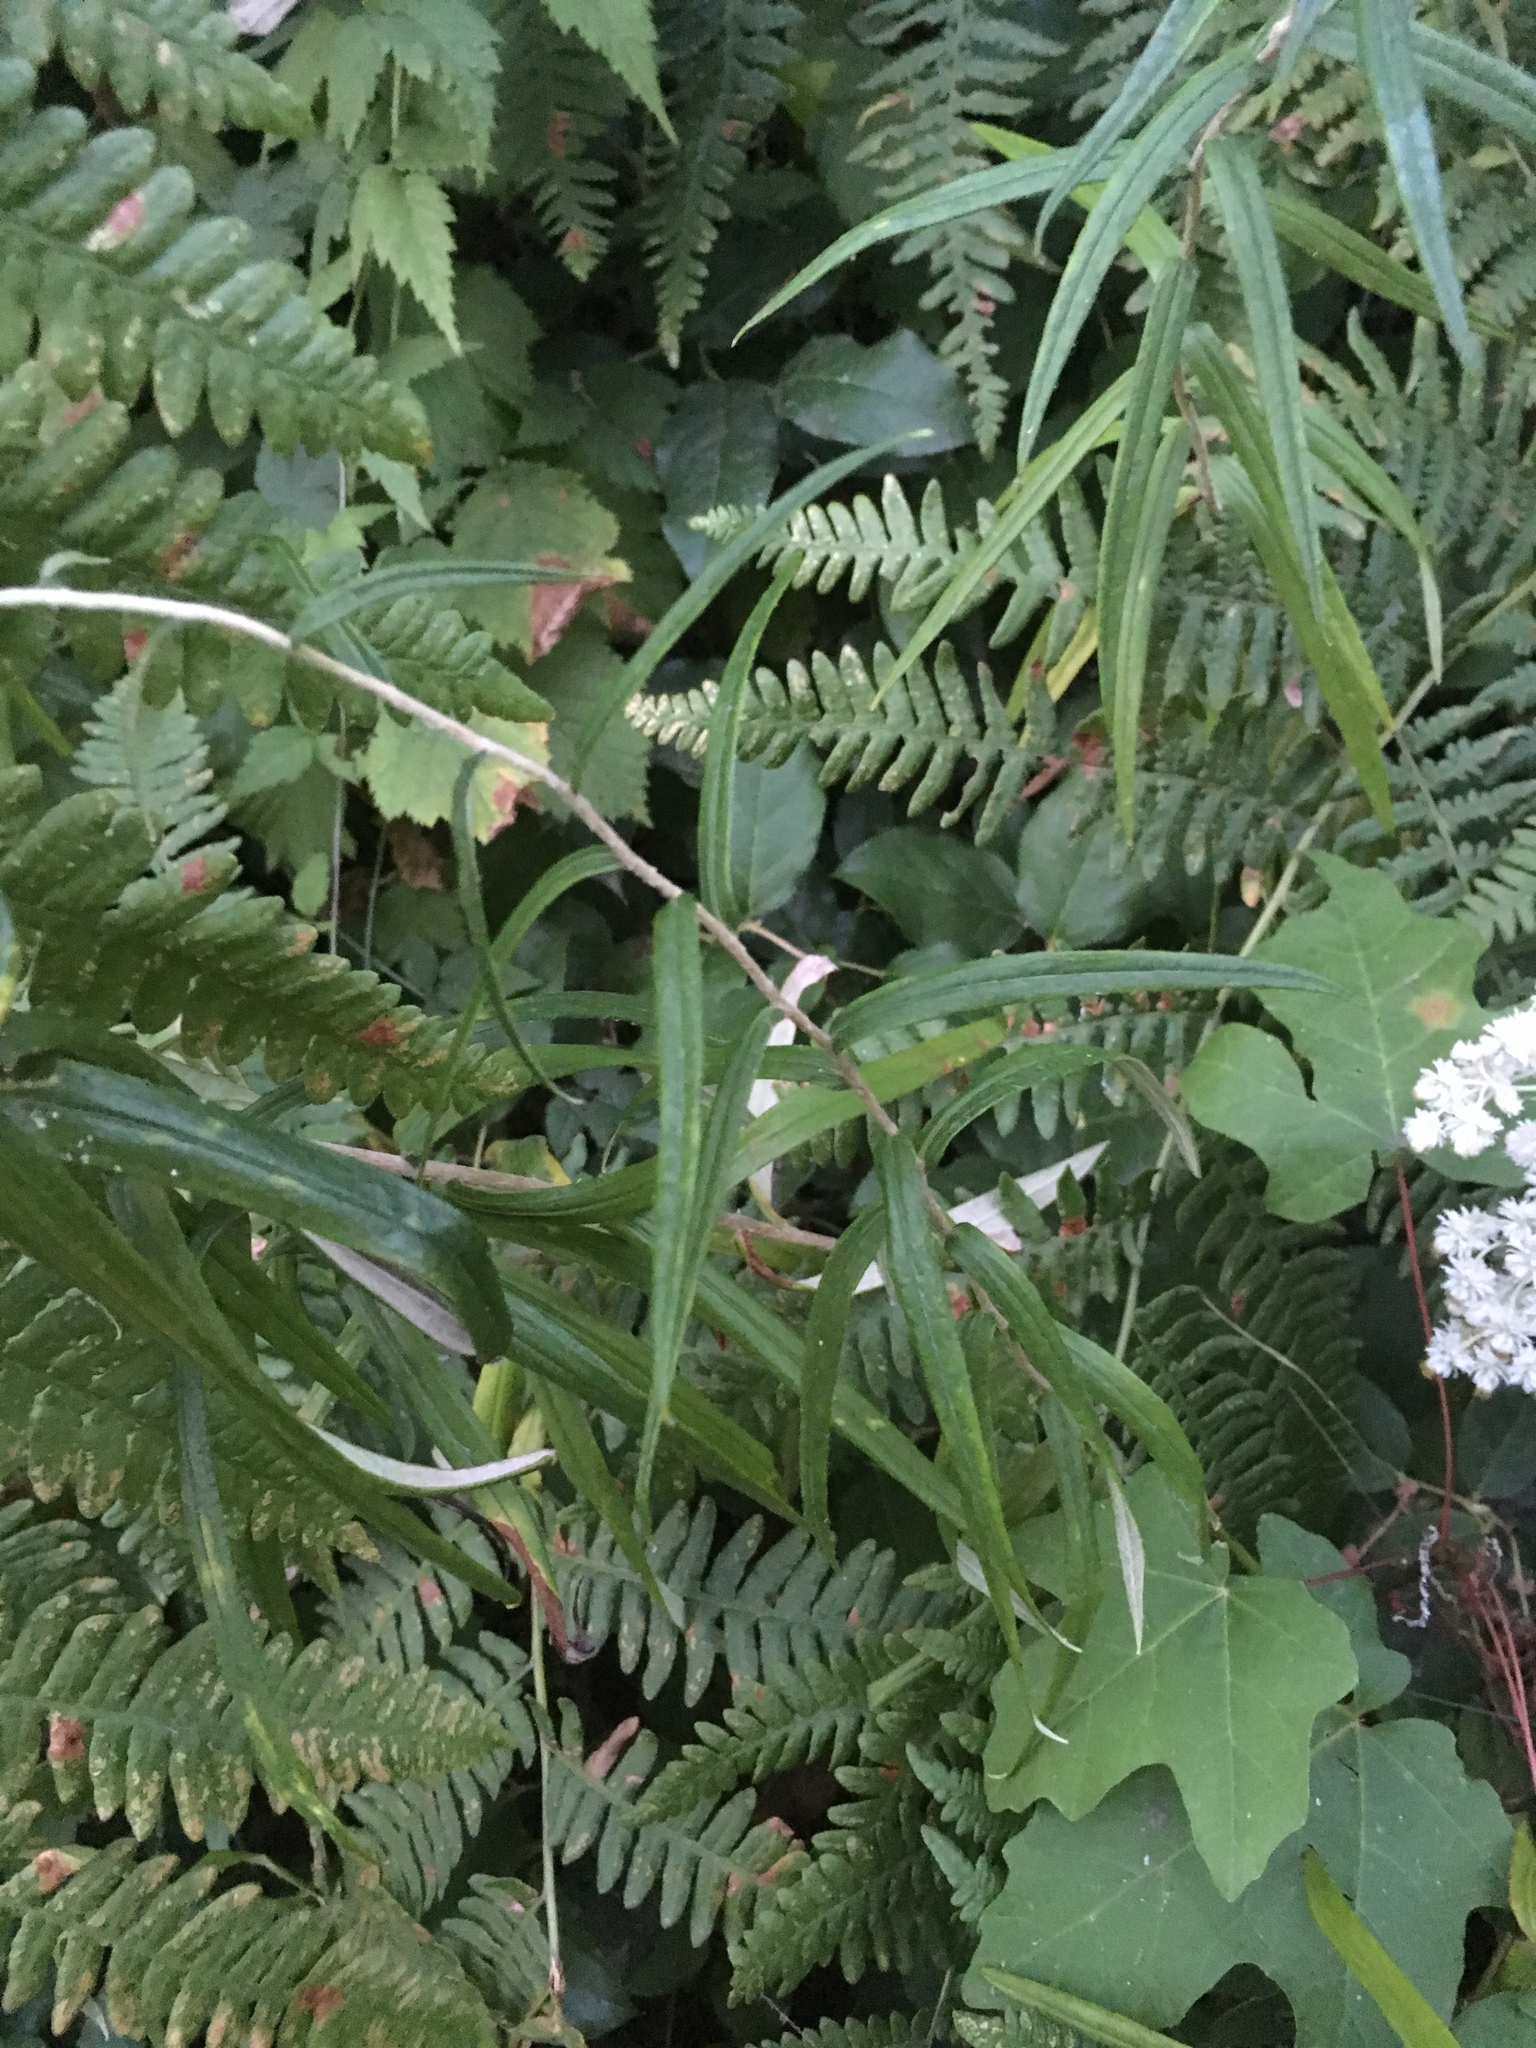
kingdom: Plantae
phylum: Tracheophyta
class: Magnoliopsida
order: Asterales
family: Asteraceae
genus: Anaphalis
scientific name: Anaphalis margaritacea
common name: Pearly everlasting
